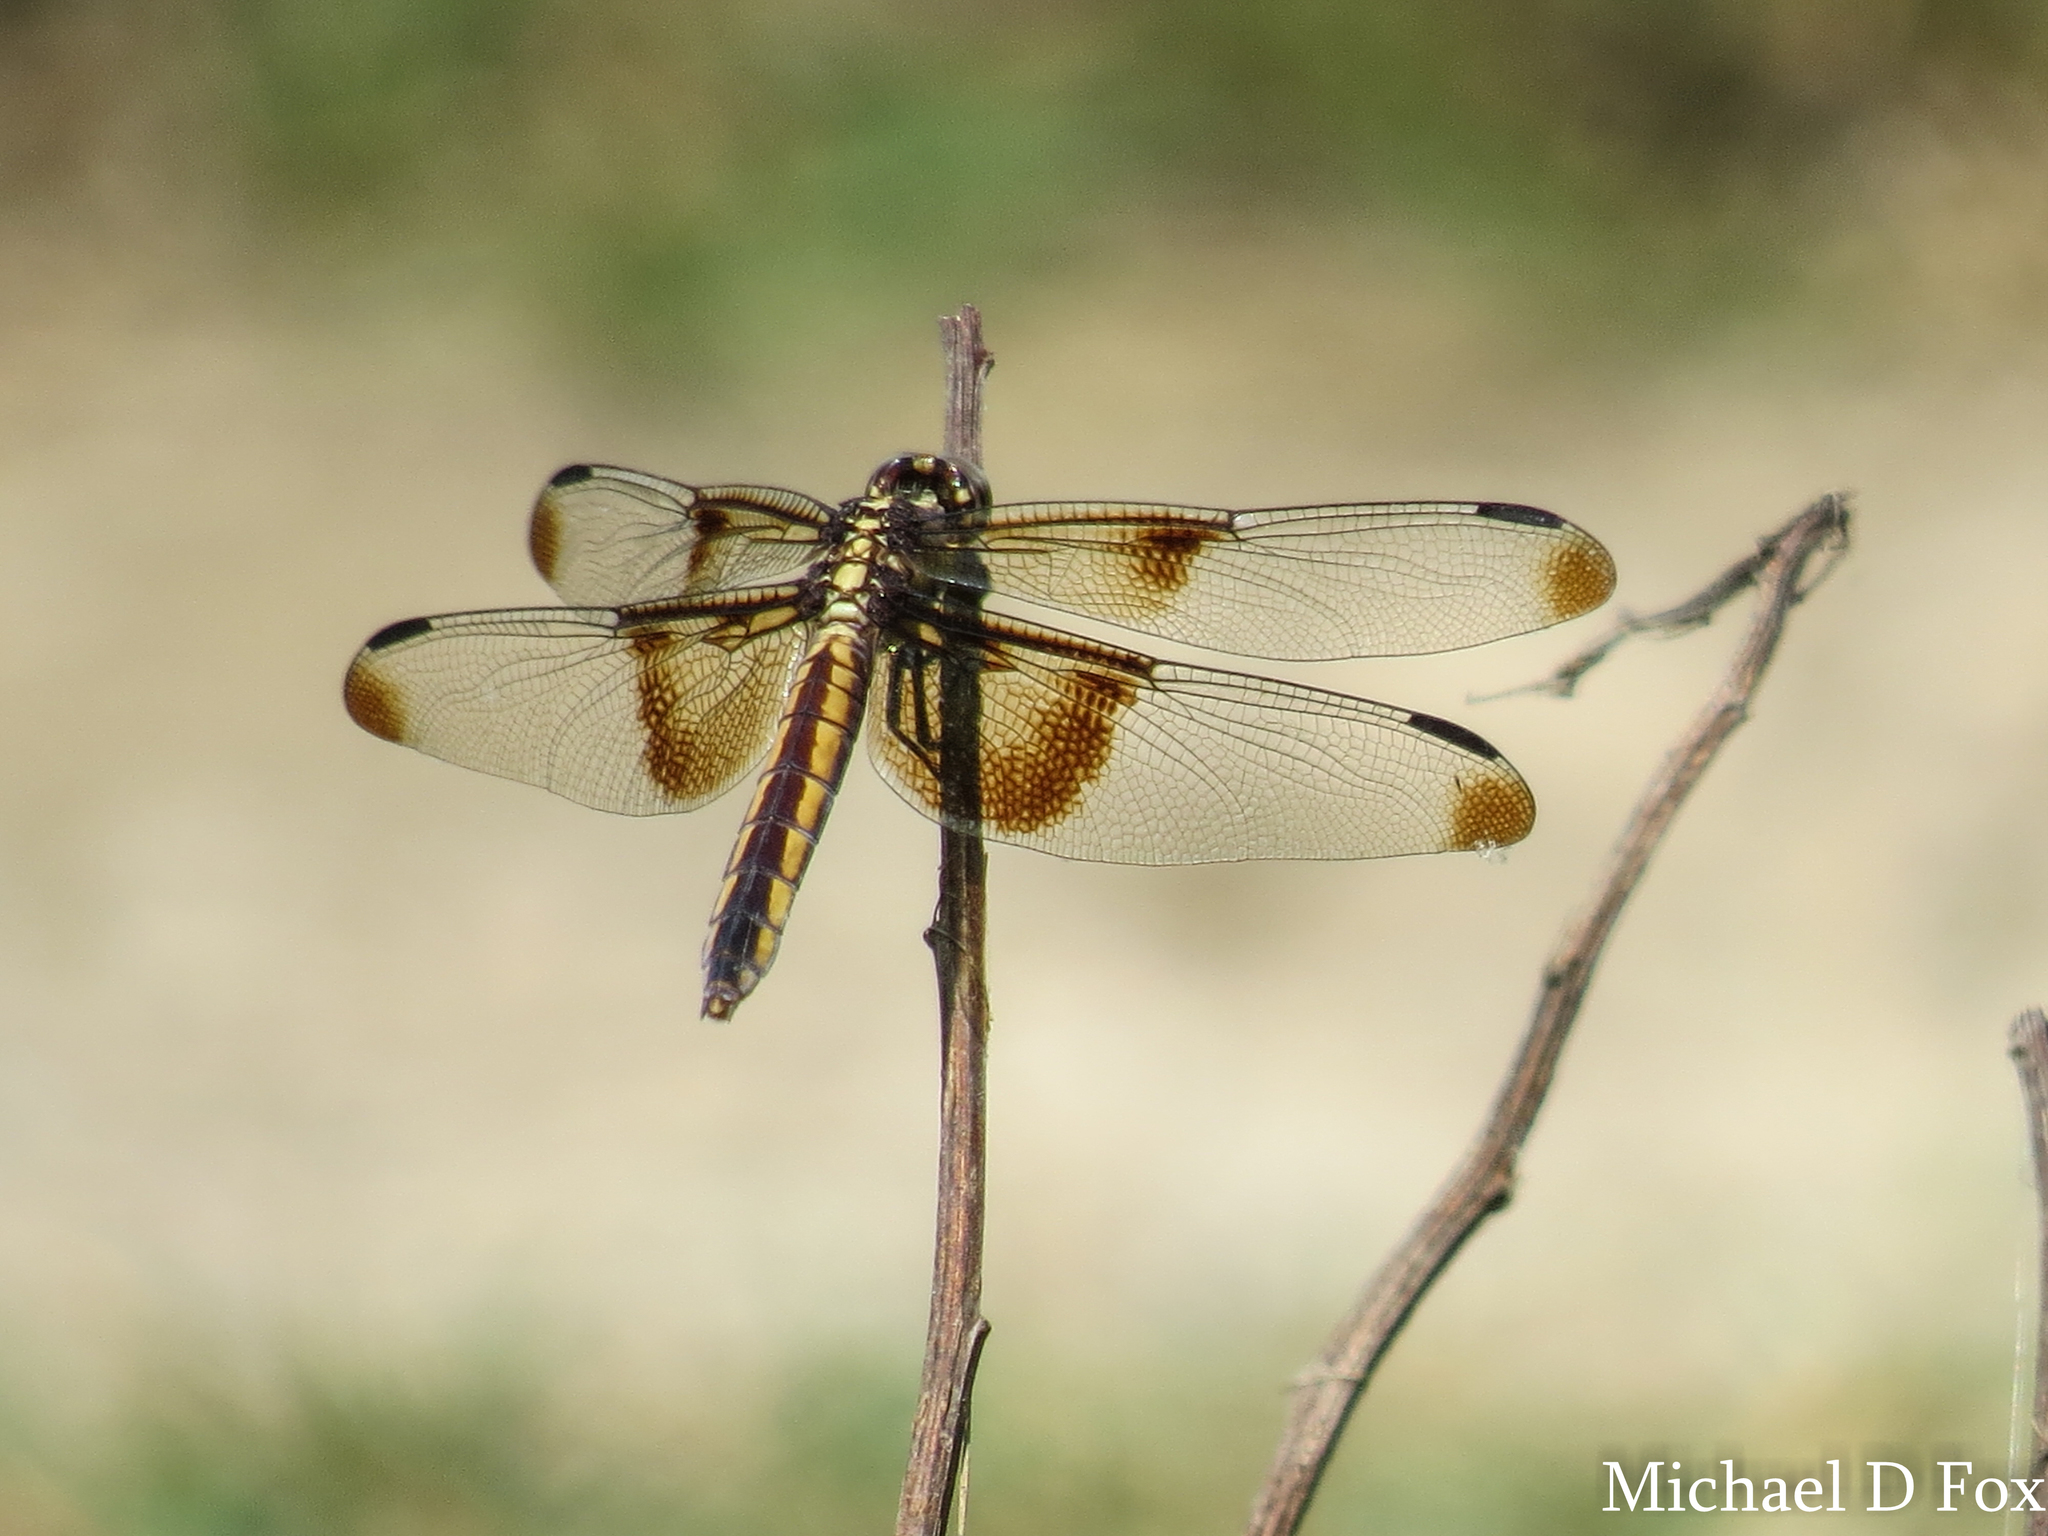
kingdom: Animalia
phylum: Arthropoda
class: Insecta
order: Odonata
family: Libellulidae
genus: Libellula
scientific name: Libellula luctuosa
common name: Widow skimmer
